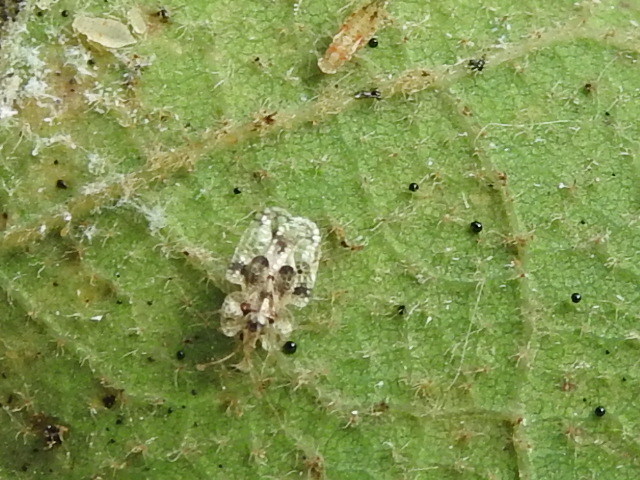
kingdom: Animalia
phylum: Arthropoda
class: Insecta
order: Hemiptera
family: Tingidae
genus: Corythucha
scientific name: Corythucha arcuata
